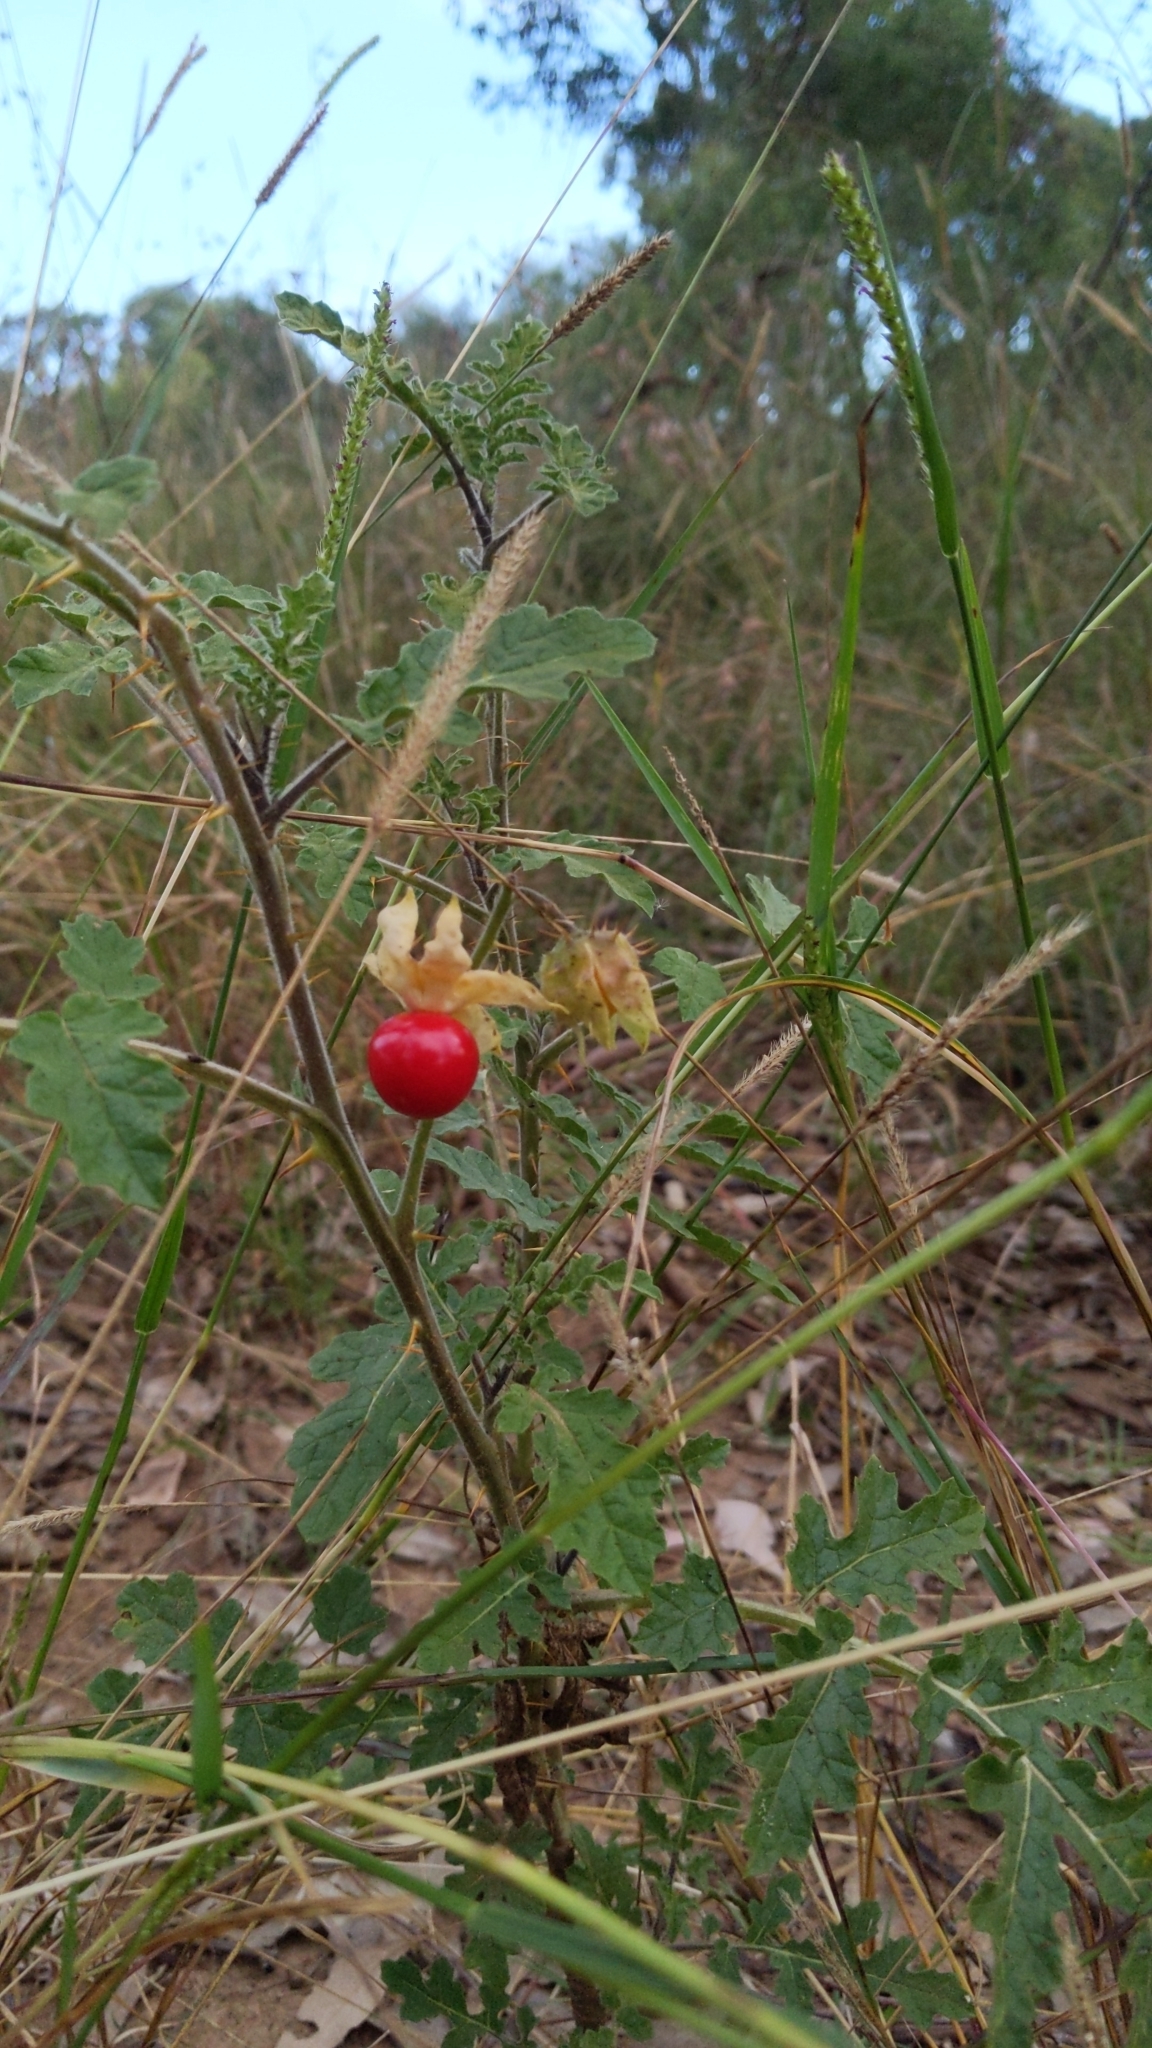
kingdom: Plantae
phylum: Tracheophyta
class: Magnoliopsida
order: Solanales
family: Solanaceae
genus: Solanum
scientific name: Solanum sisymbriifolium
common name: Red buffalo-bur
